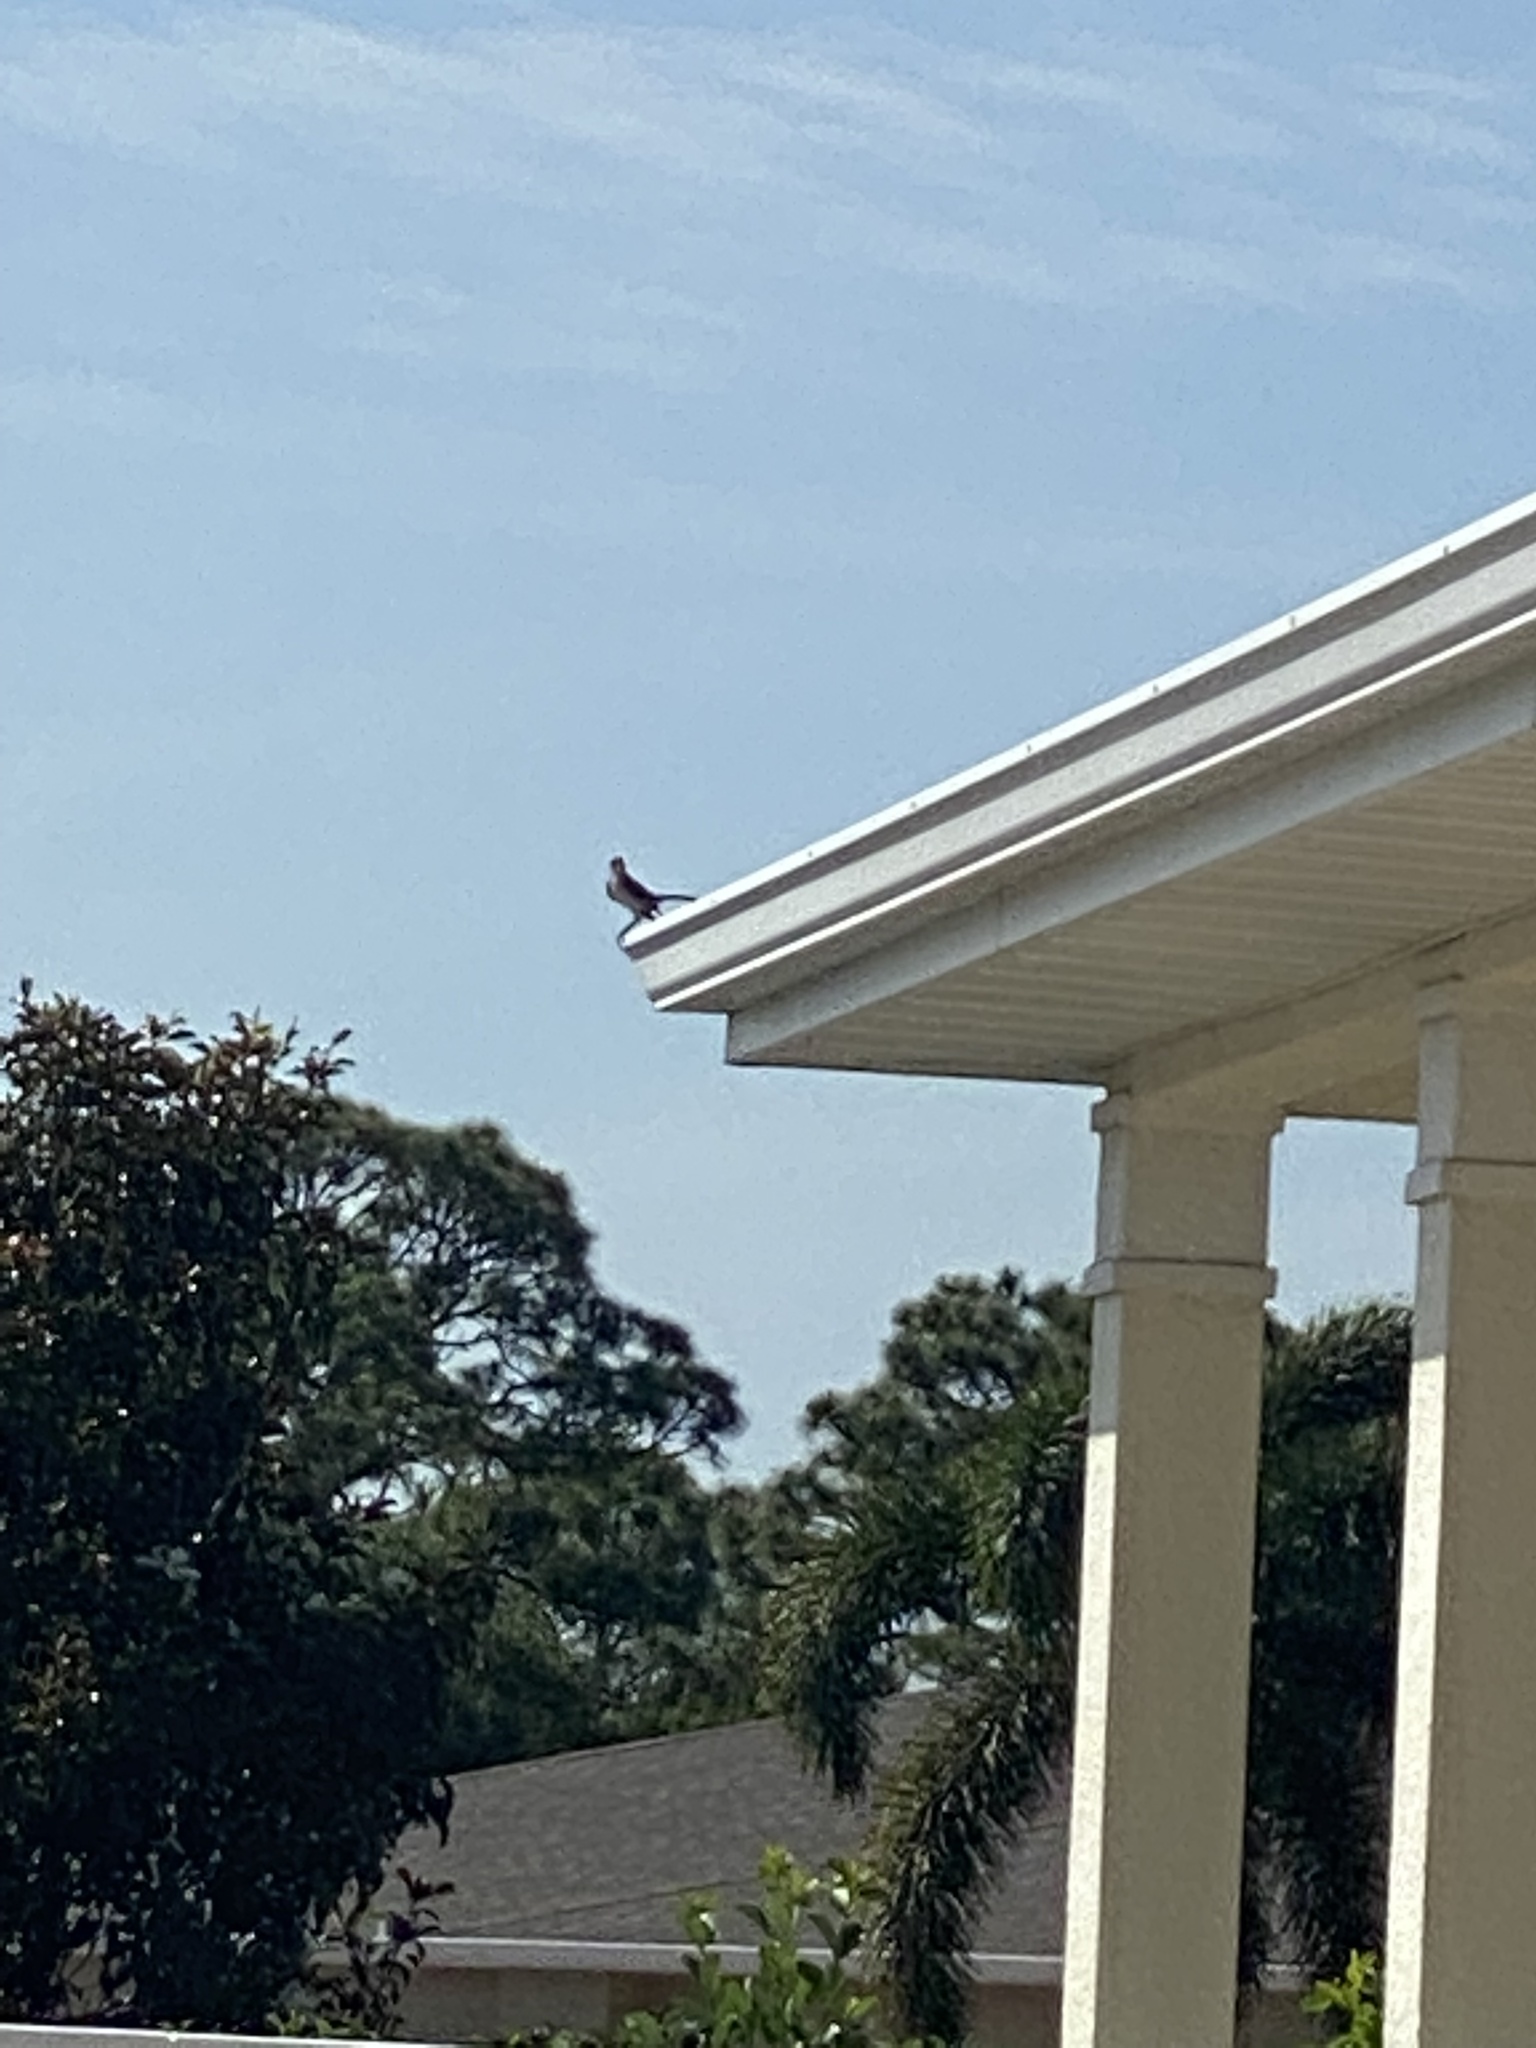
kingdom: Animalia
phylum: Chordata
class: Aves
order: Passeriformes
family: Mimidae
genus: Mimus
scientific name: Mimus polyglottos
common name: Northern mockingbird
